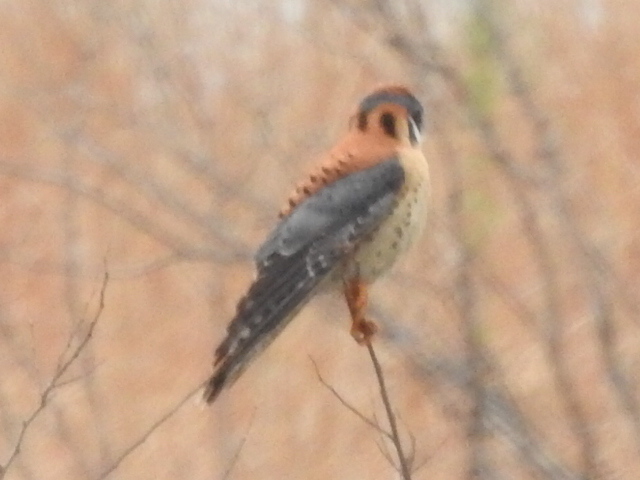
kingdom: Animalia
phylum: Chordata
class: Aves
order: Falconiformes
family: Falconidae
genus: Falco
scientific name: Falco sparverius
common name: American kestrel
